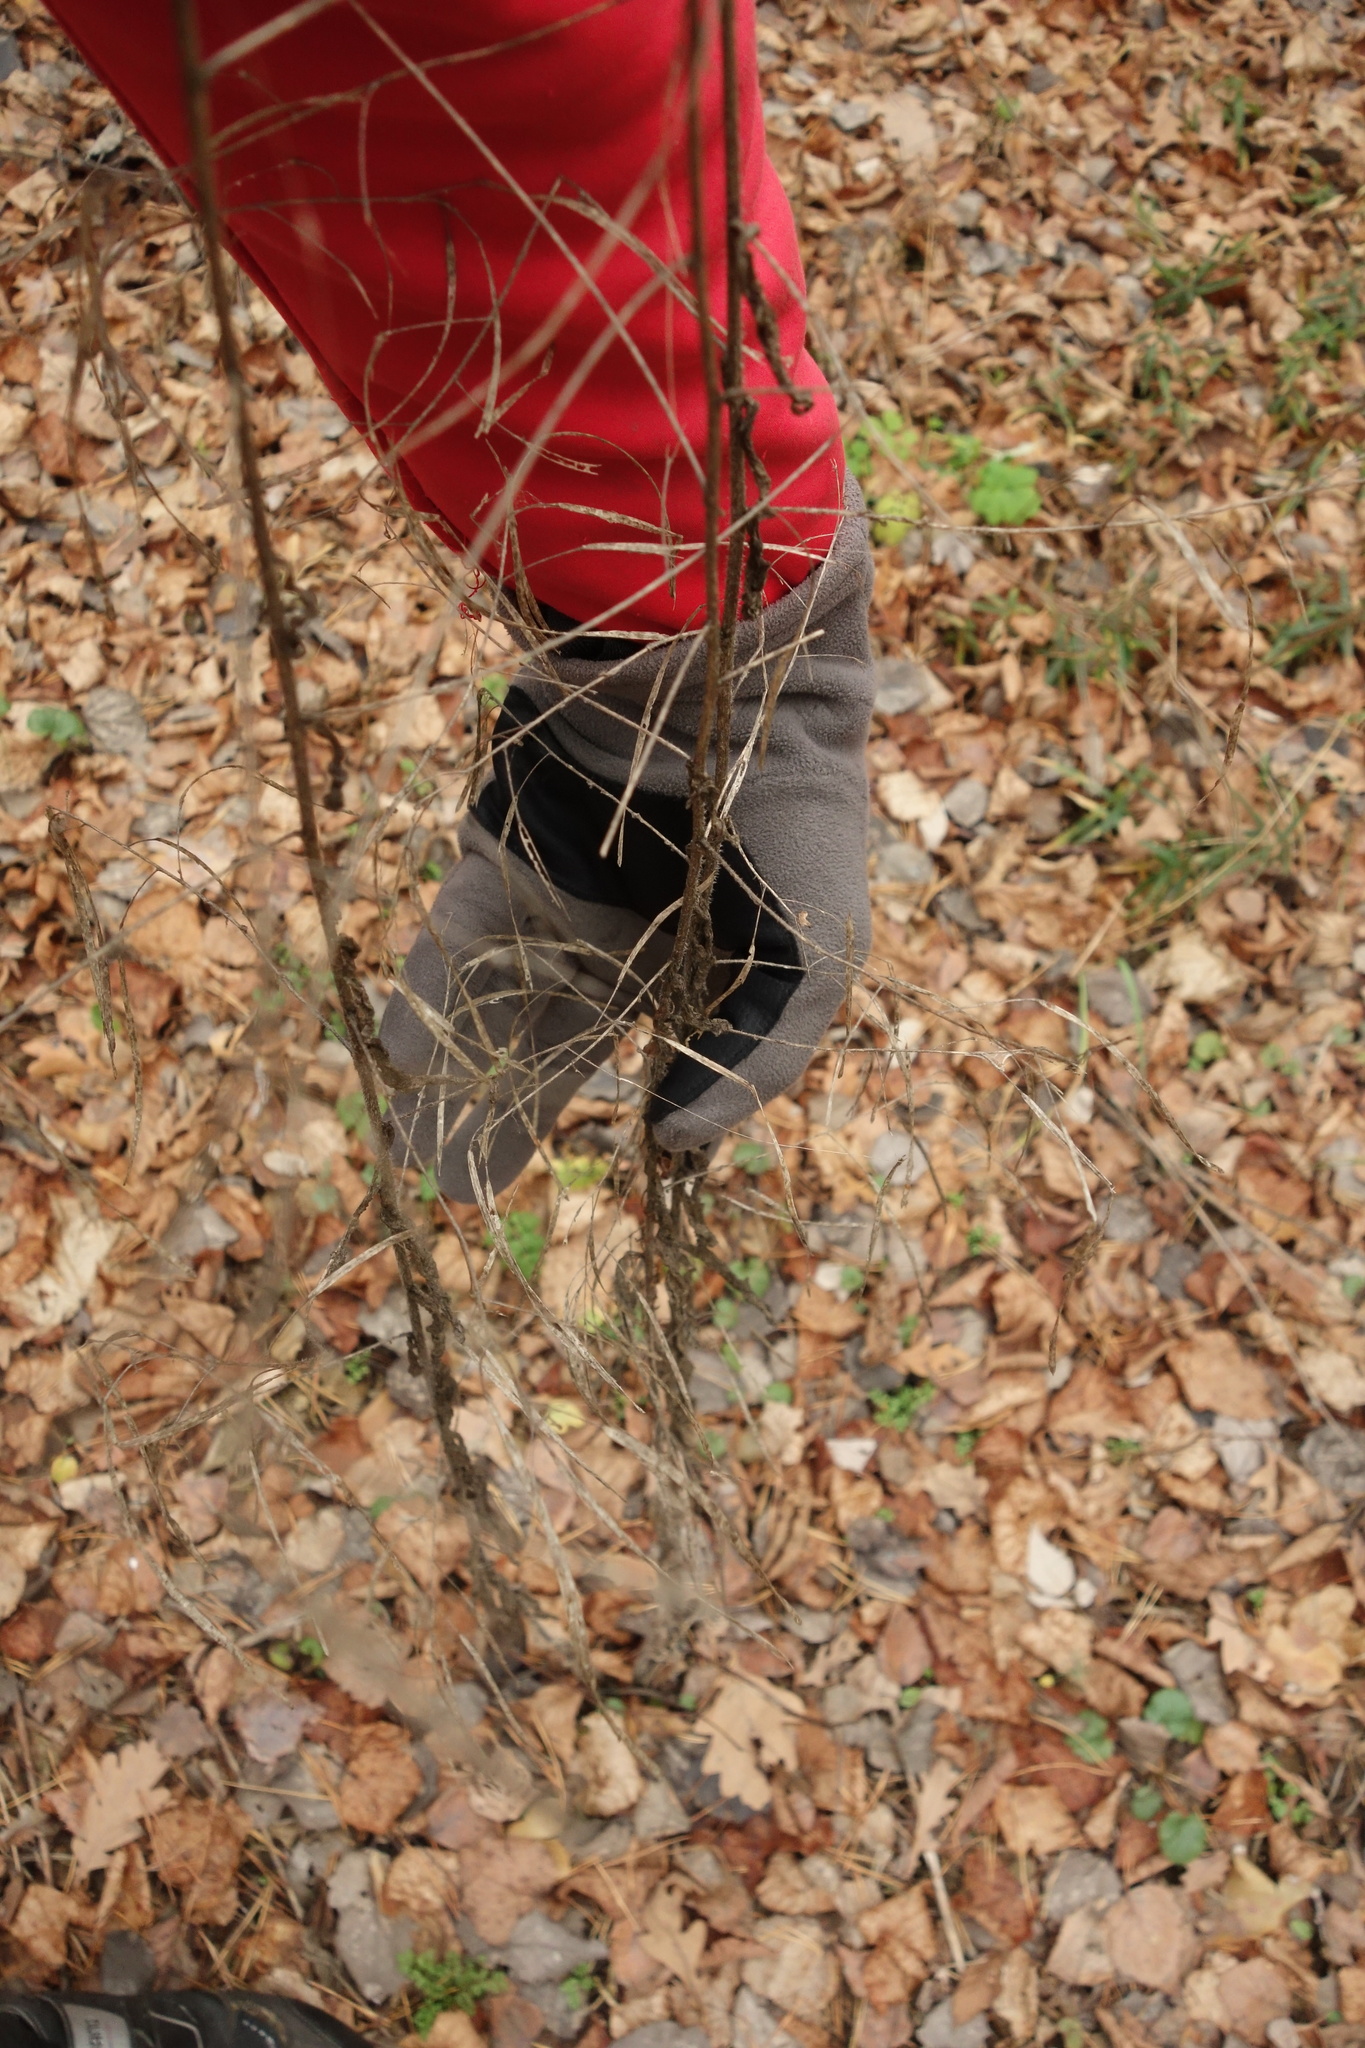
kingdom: Plantae
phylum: Tracheophyta
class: Magnoliopsida
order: Brassicales
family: Brassicaceae
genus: Catolobus
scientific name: Catolobus pendulus
